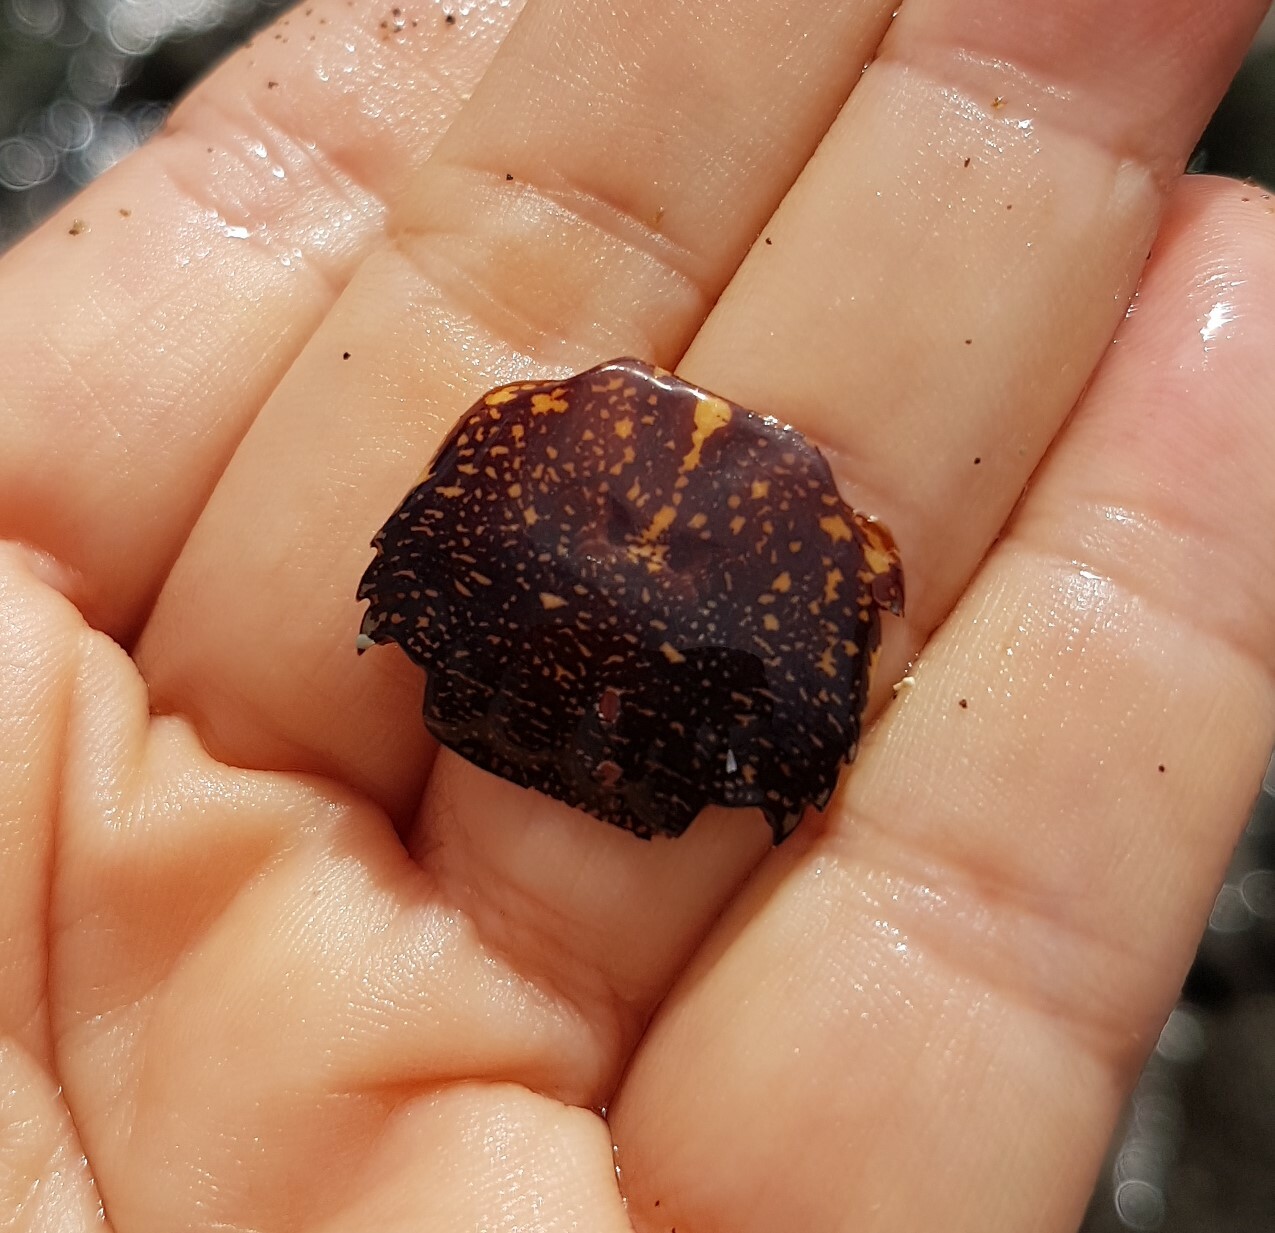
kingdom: Animalia
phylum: Arthropoda
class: Malacostraca
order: Decapoda
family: Grapsidae
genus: Pachygrapsus
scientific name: Pachygrapsus marmoratus
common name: Marbled rock crab
